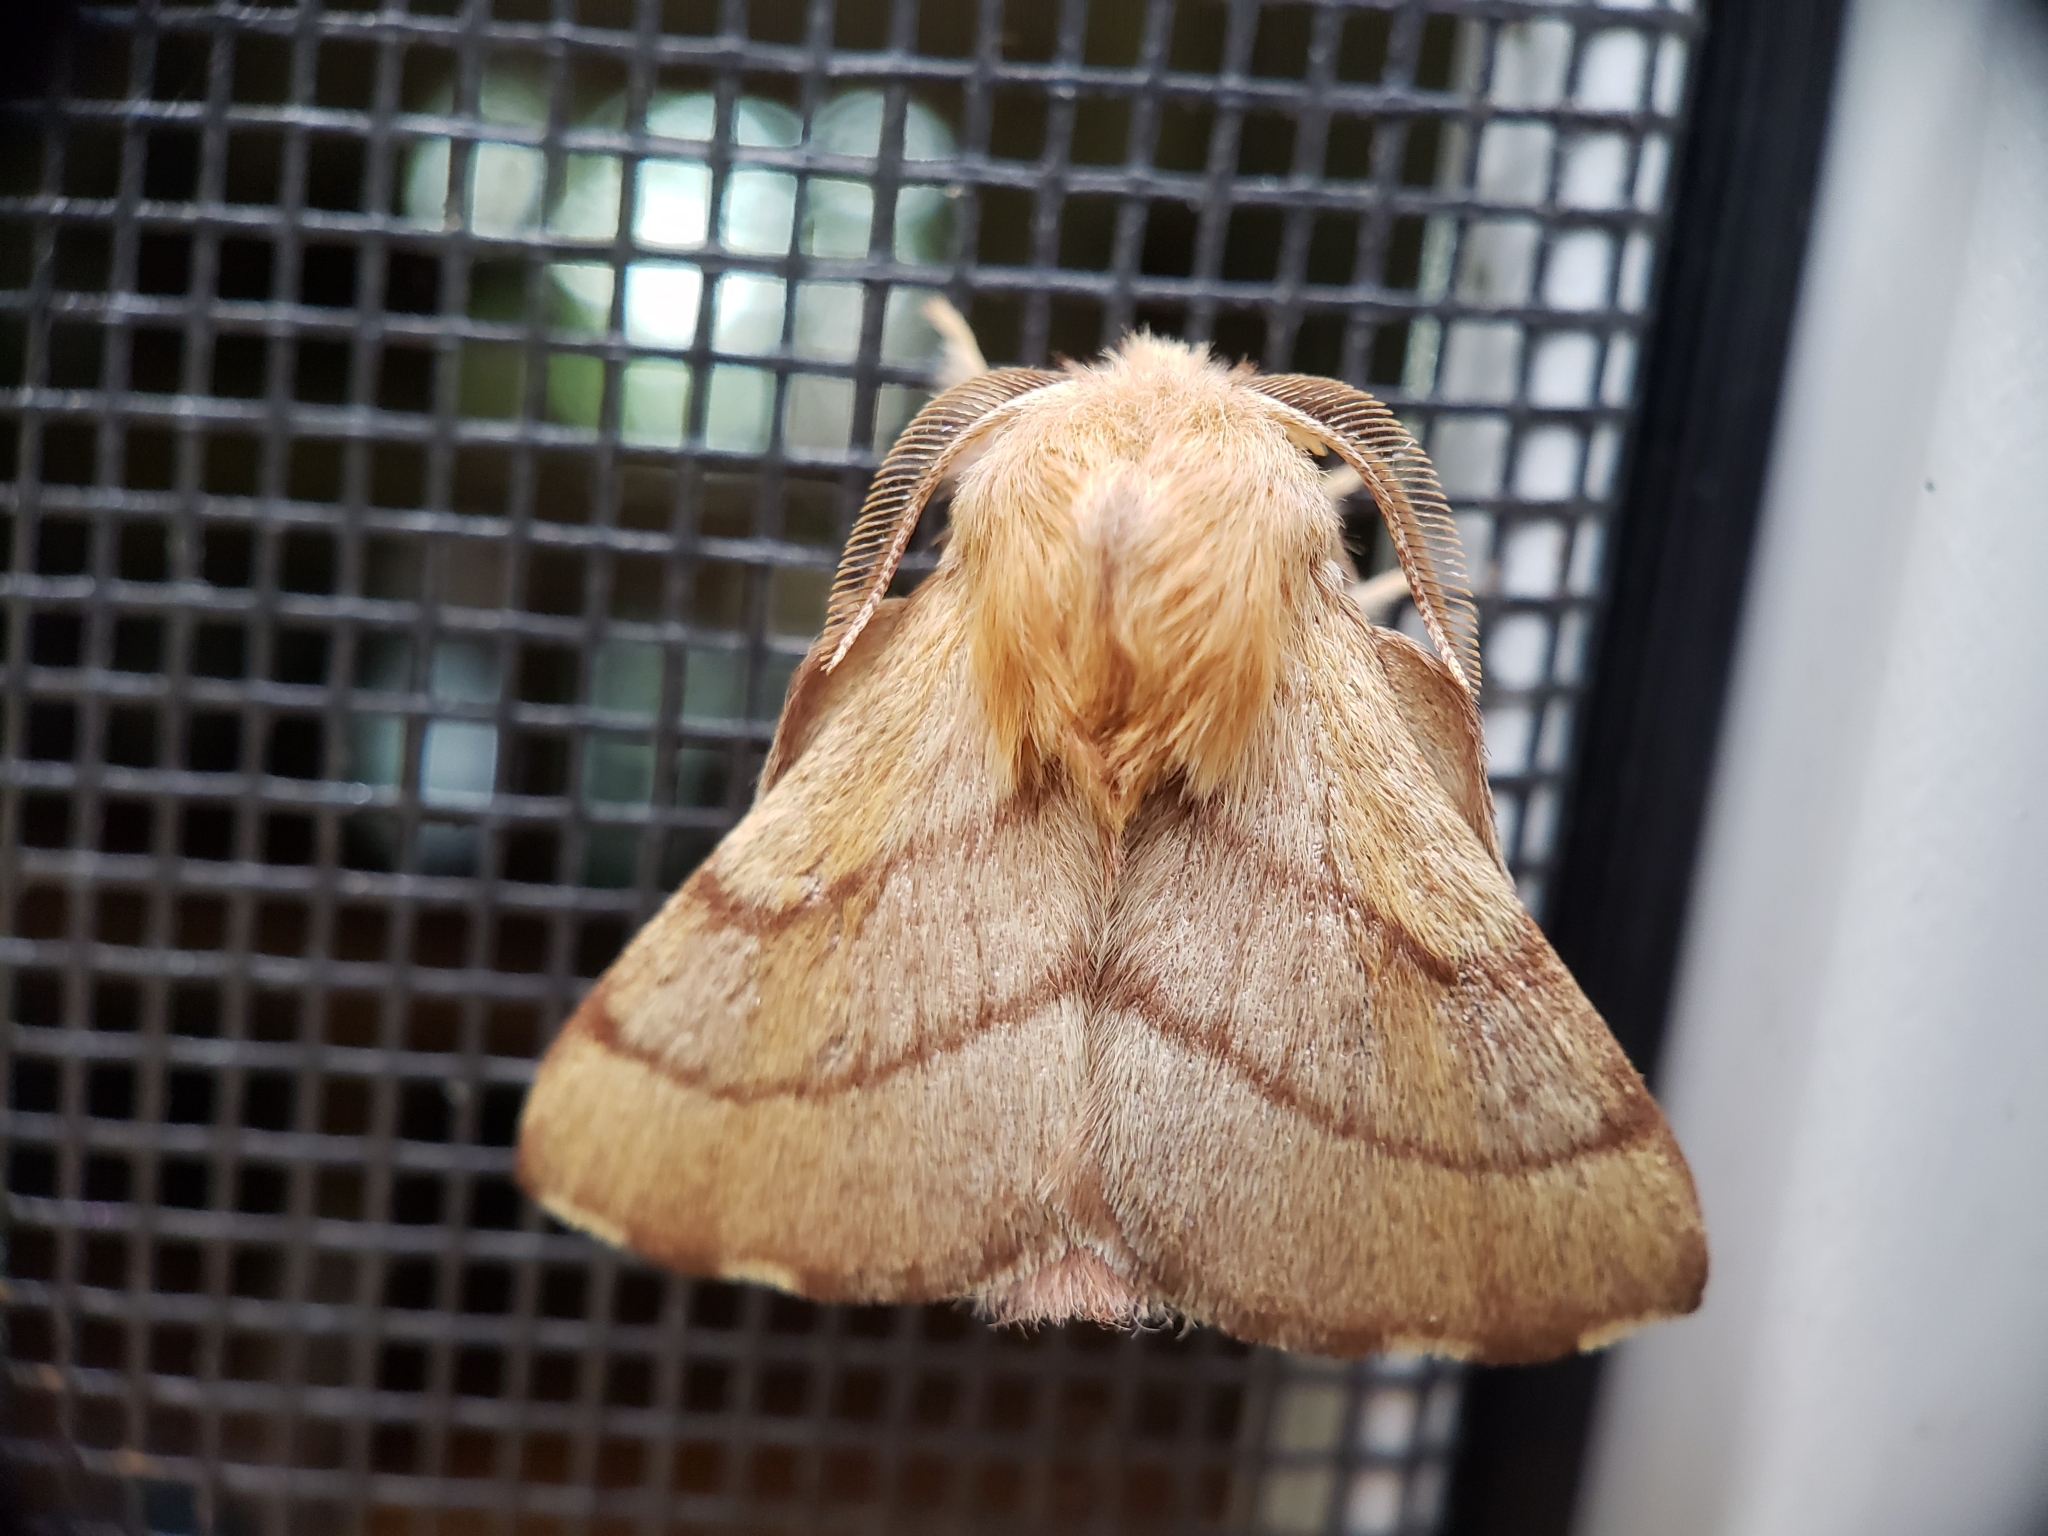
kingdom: Animalia
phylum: Arthropoda
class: Insecta
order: Lepidoptera
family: Lasiocampidae
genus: Malacosoma
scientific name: Malacosoma disstria
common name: Forest tent caterpillar
